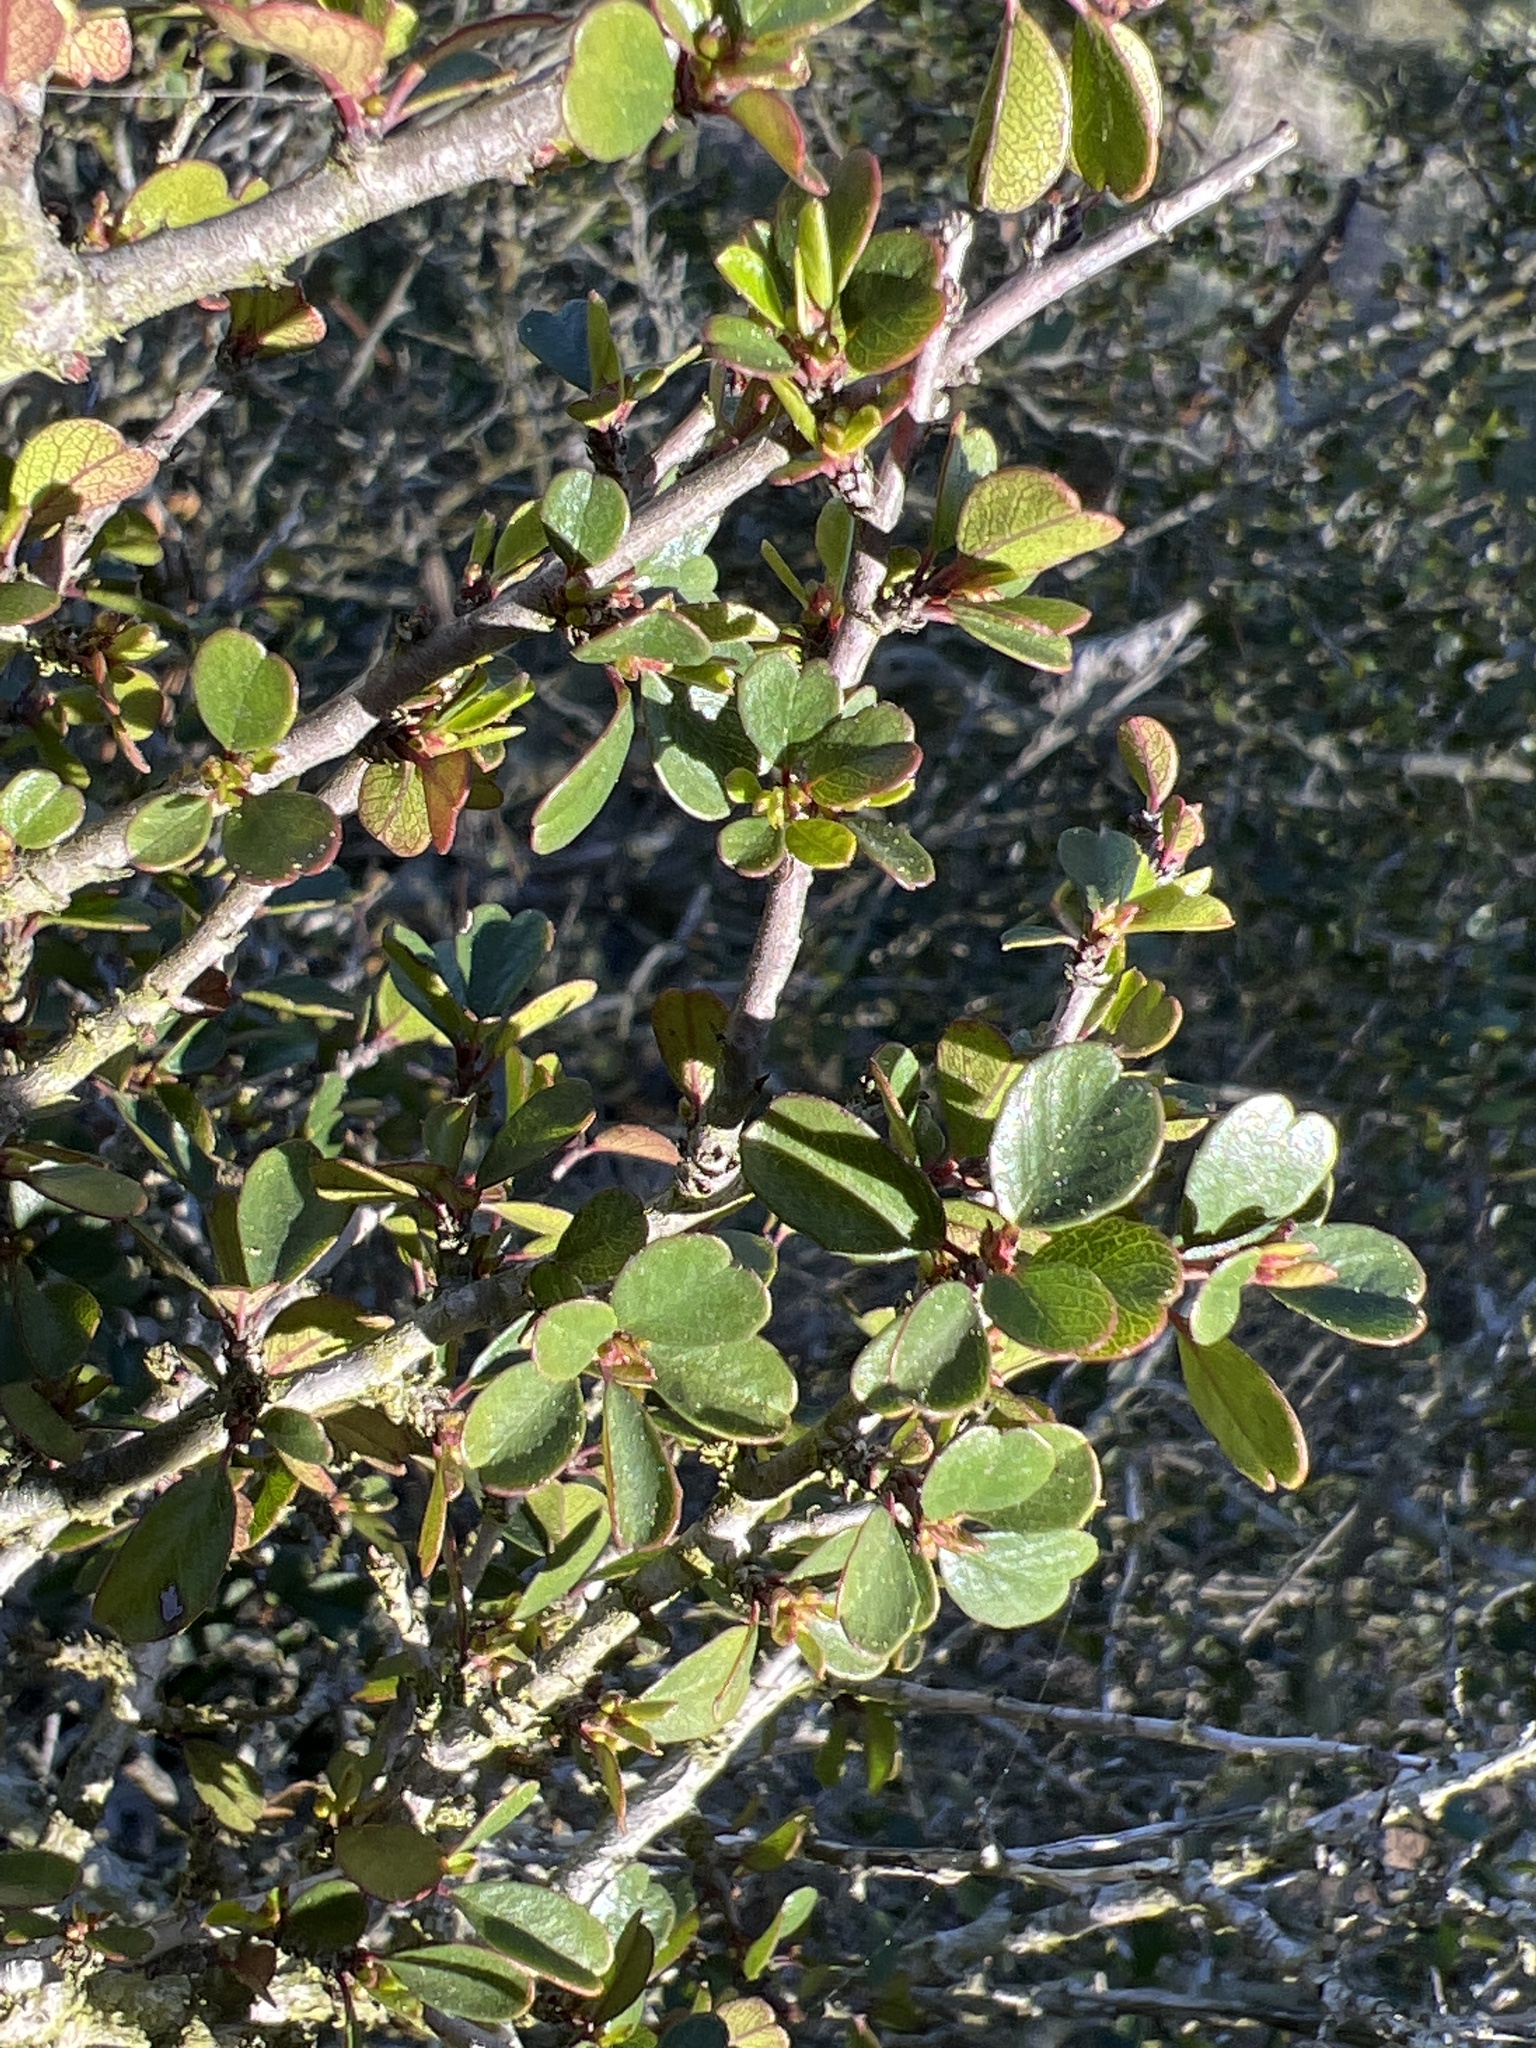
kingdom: Plantae
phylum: Tracheophyta
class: Magnoliopsida
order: Rosales
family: Rhamnaceae
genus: Endotropis
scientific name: Endotropis crocea
